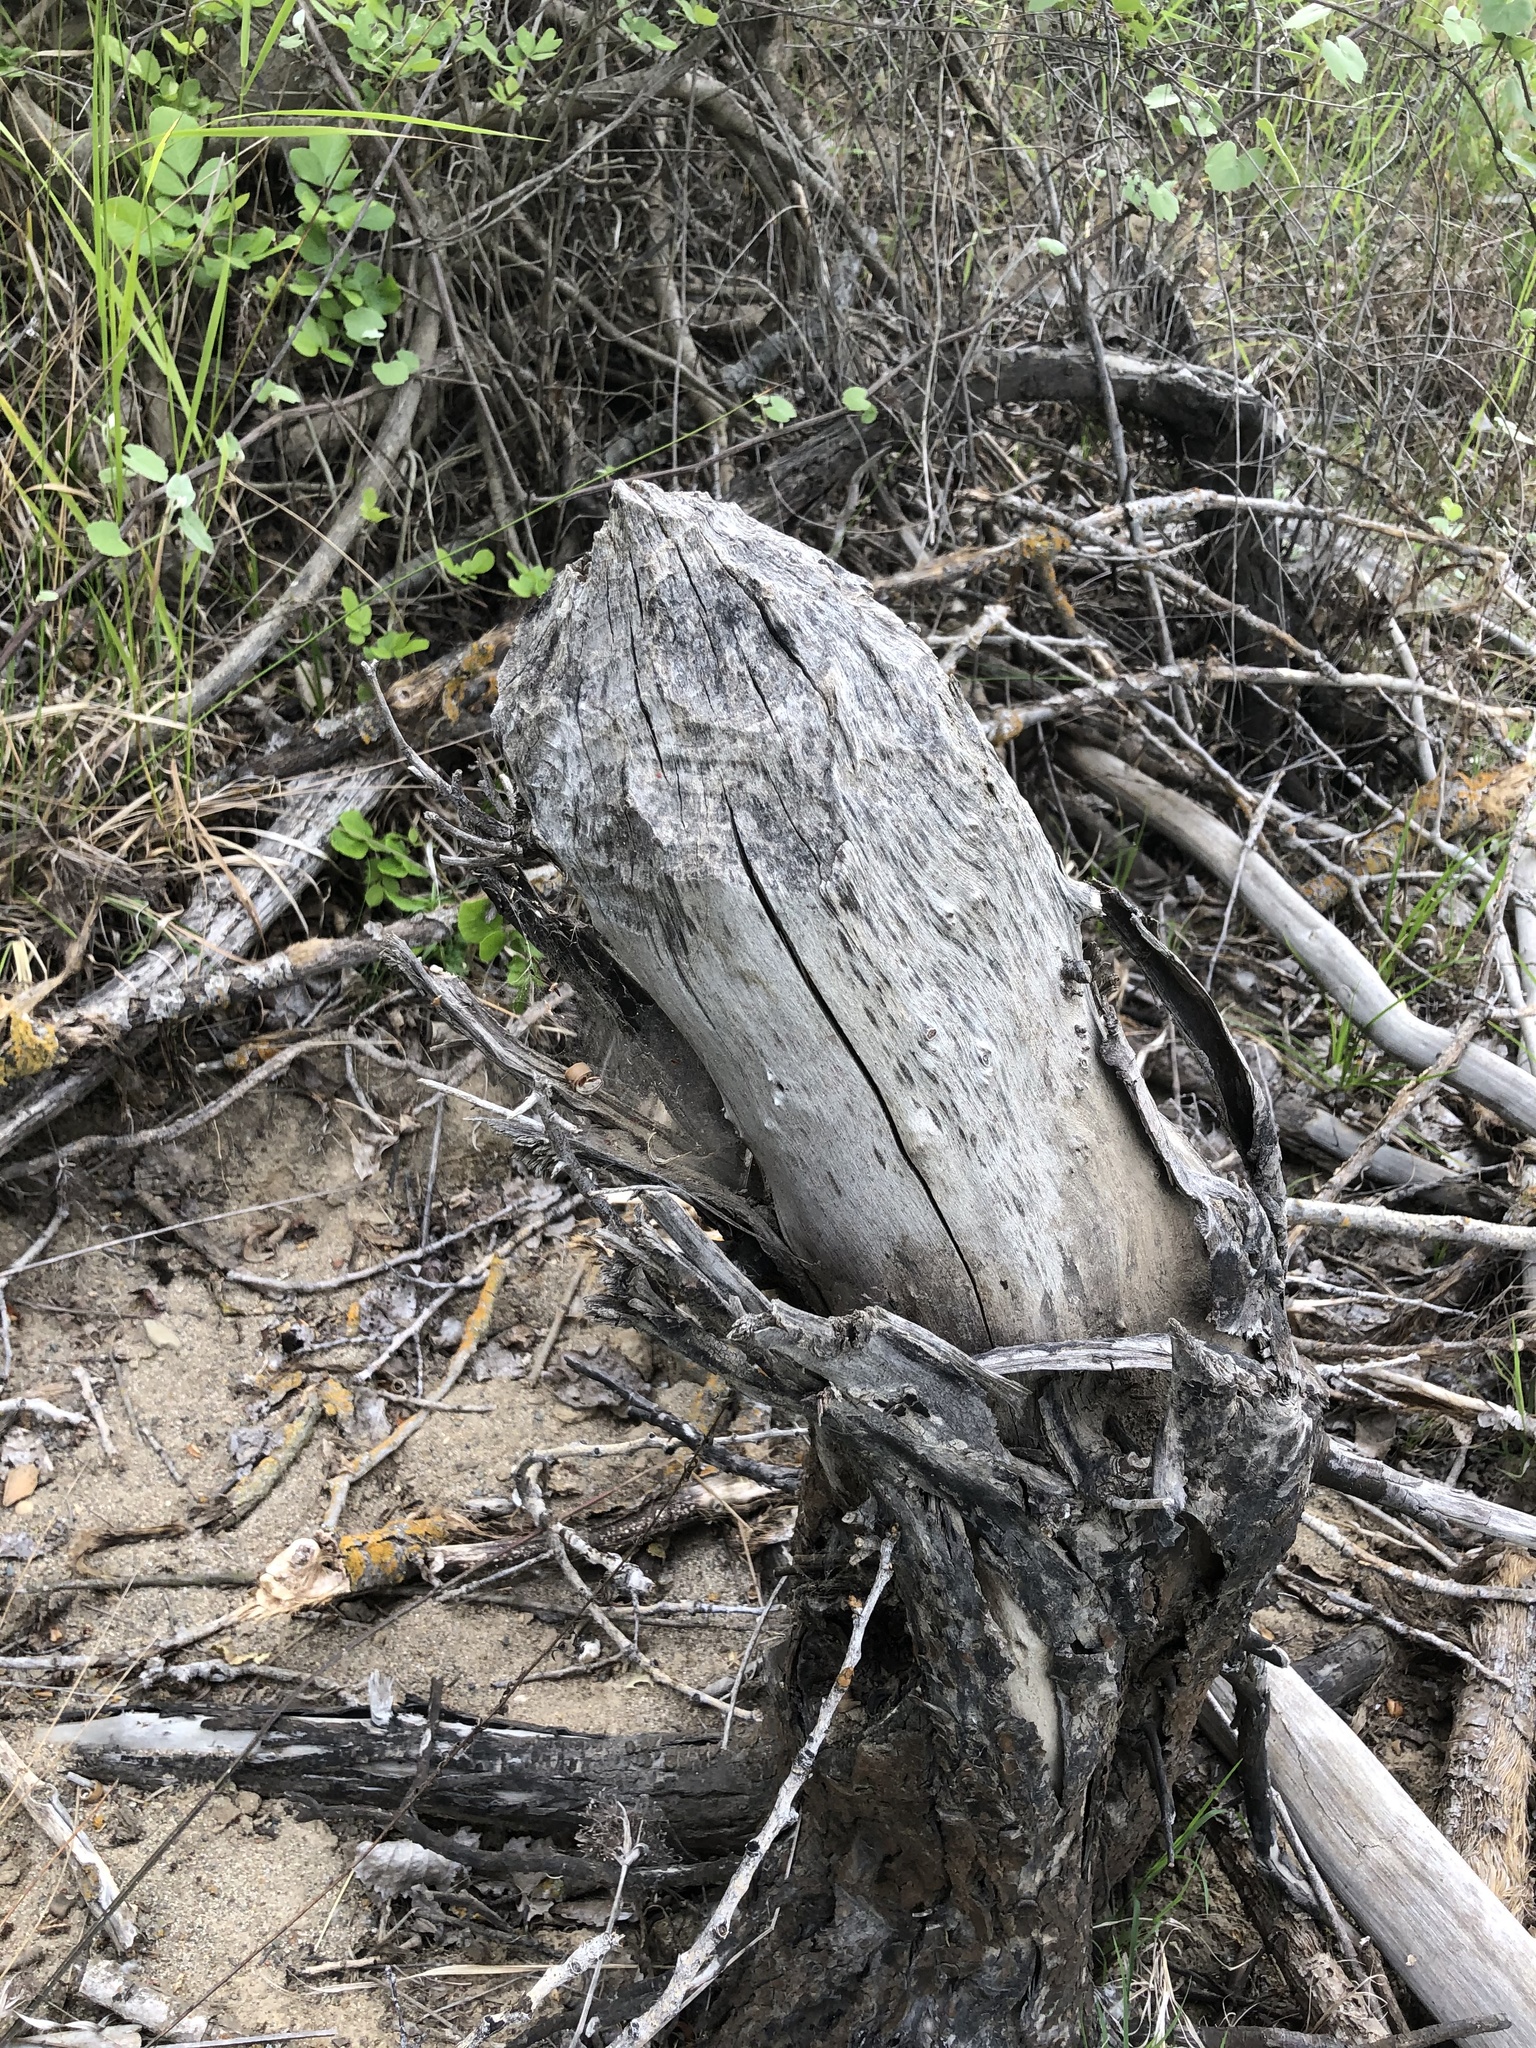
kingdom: Animalia
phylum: Chordata
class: Mammalia
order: Rodentia
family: Castoridae
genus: Castor
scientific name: Castor canadensis
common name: American beaver
